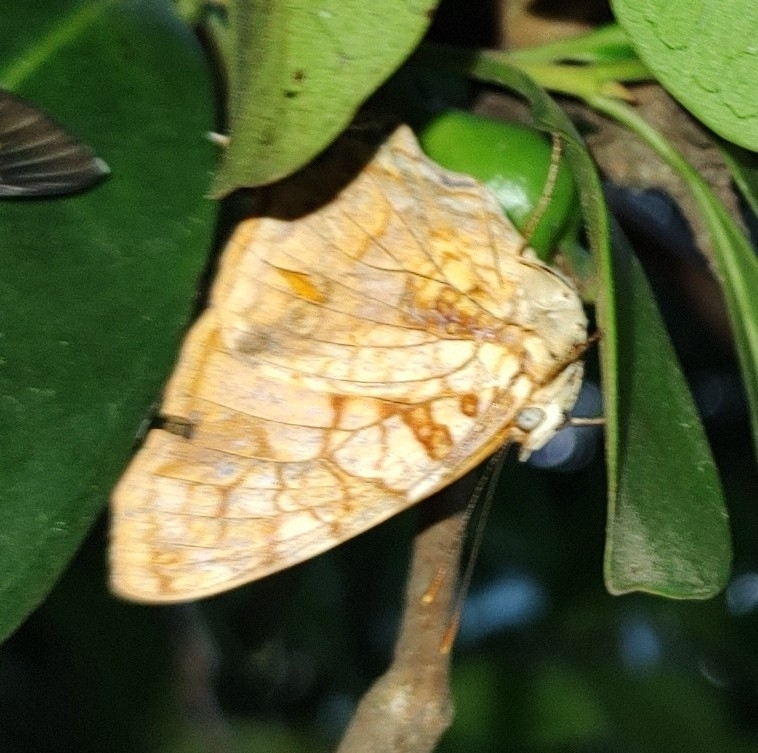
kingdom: Animalia
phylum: Arthropoda
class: Insecta
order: Lepidoptera
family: Nymphalidae
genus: Hypanartia
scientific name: Hypanartia lethe
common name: Orange mapwing
